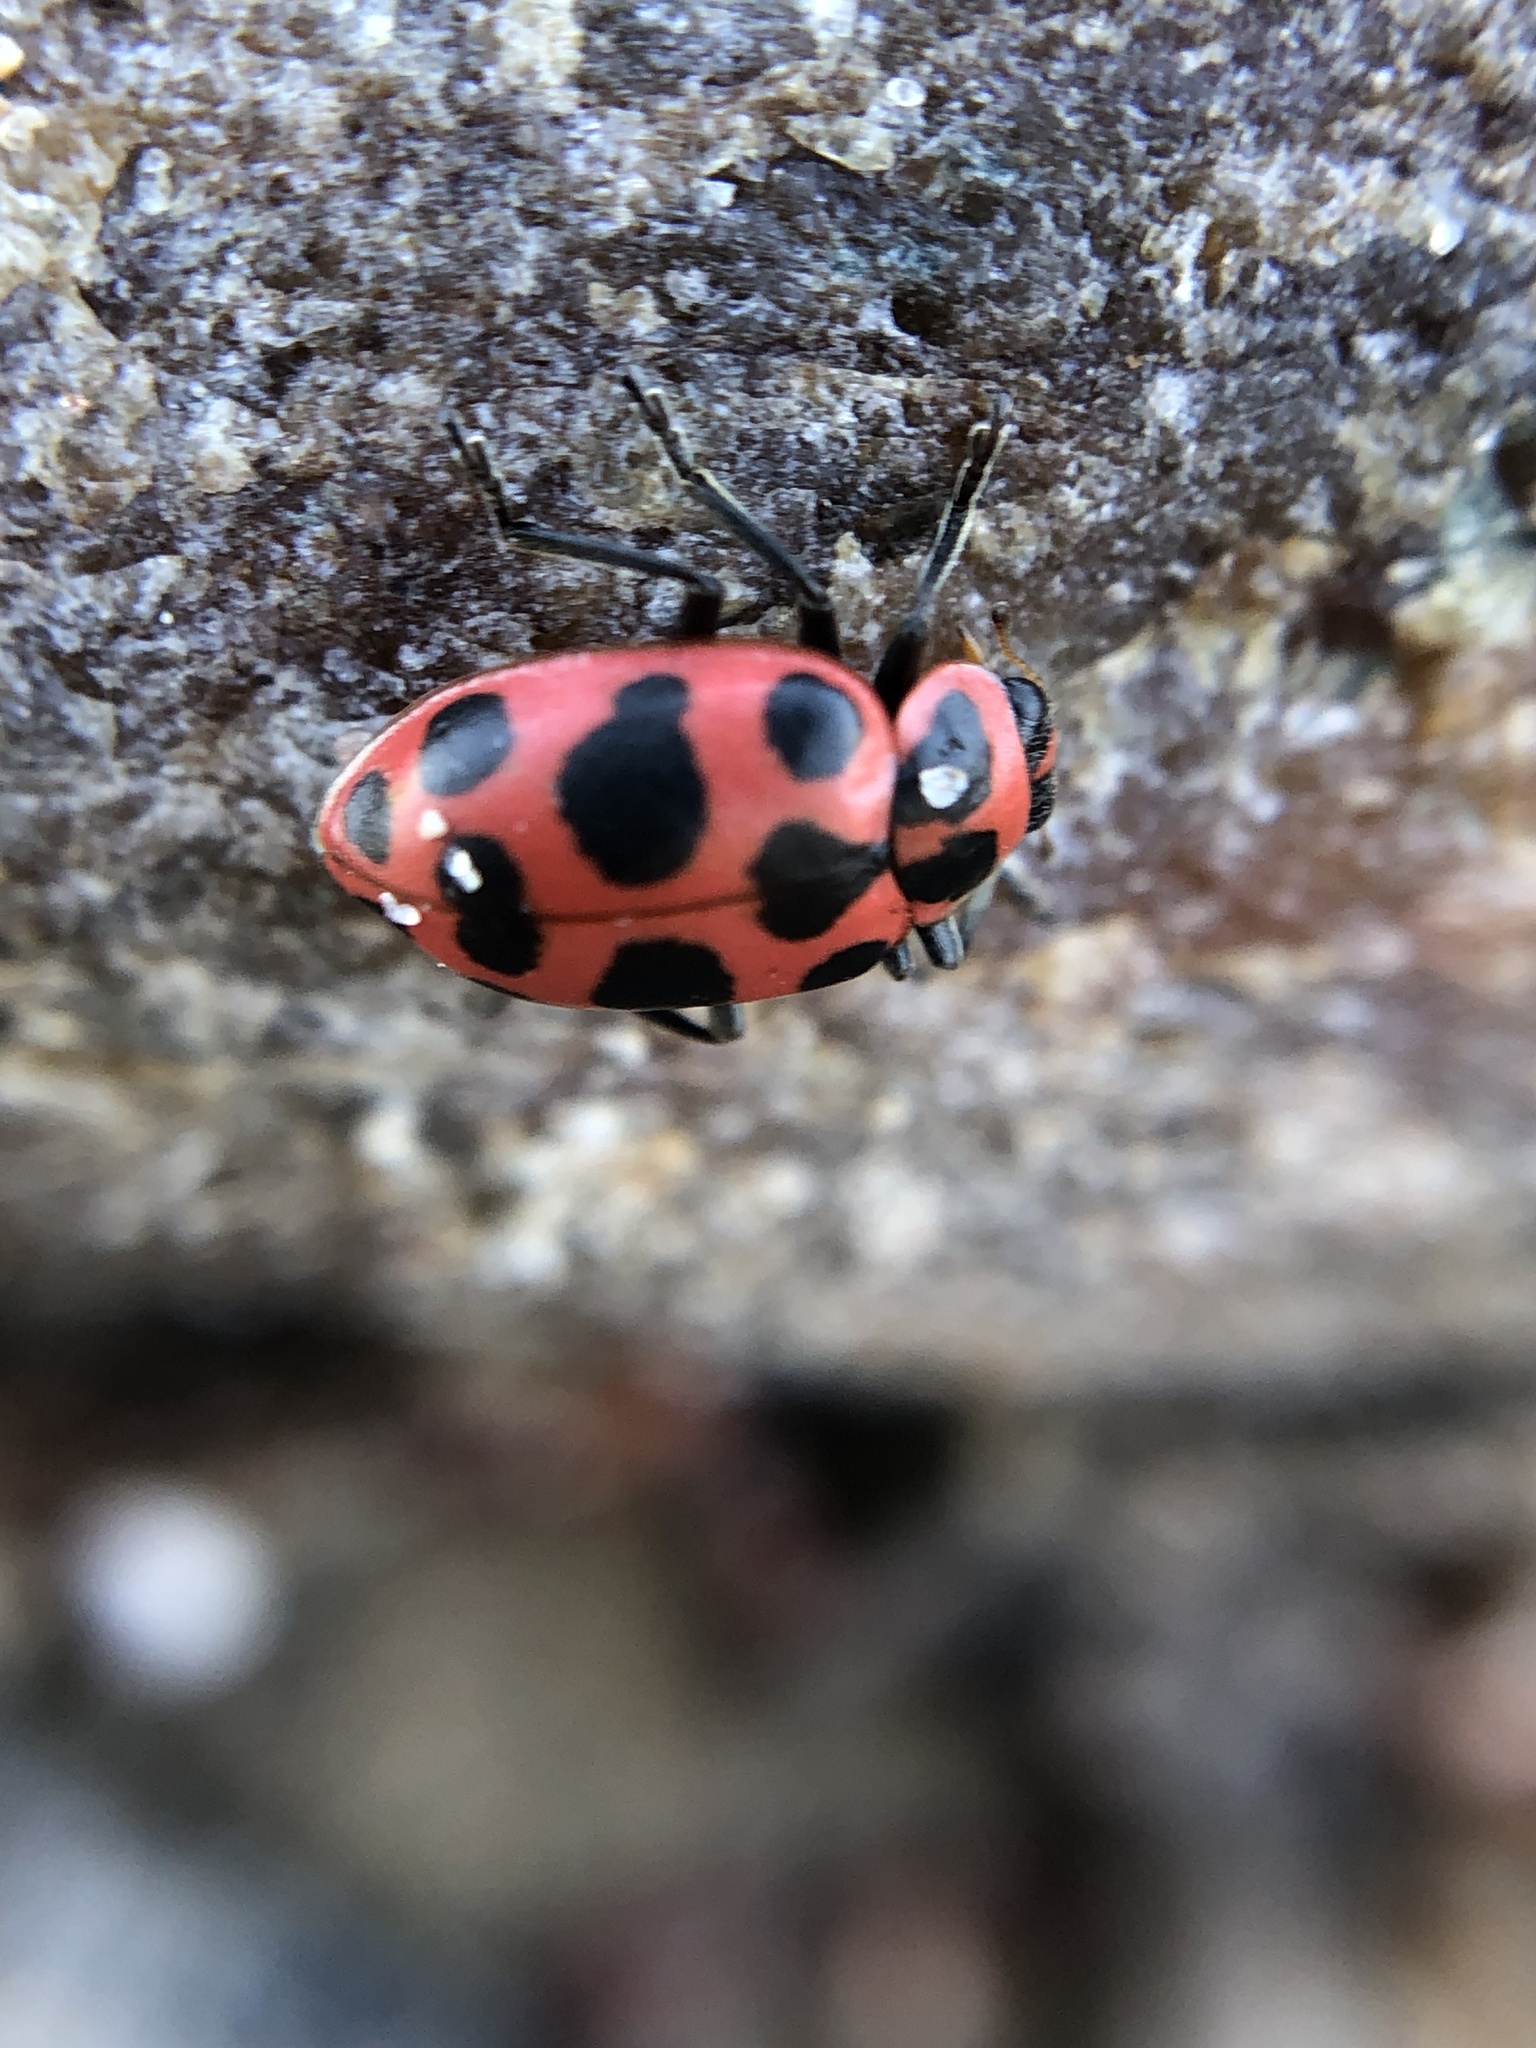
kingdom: Animalia
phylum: Arthropoda
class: Insecta
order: Coleoptera
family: Coccinellidae
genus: Coleomegilla
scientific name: Coleomegilla maculata
